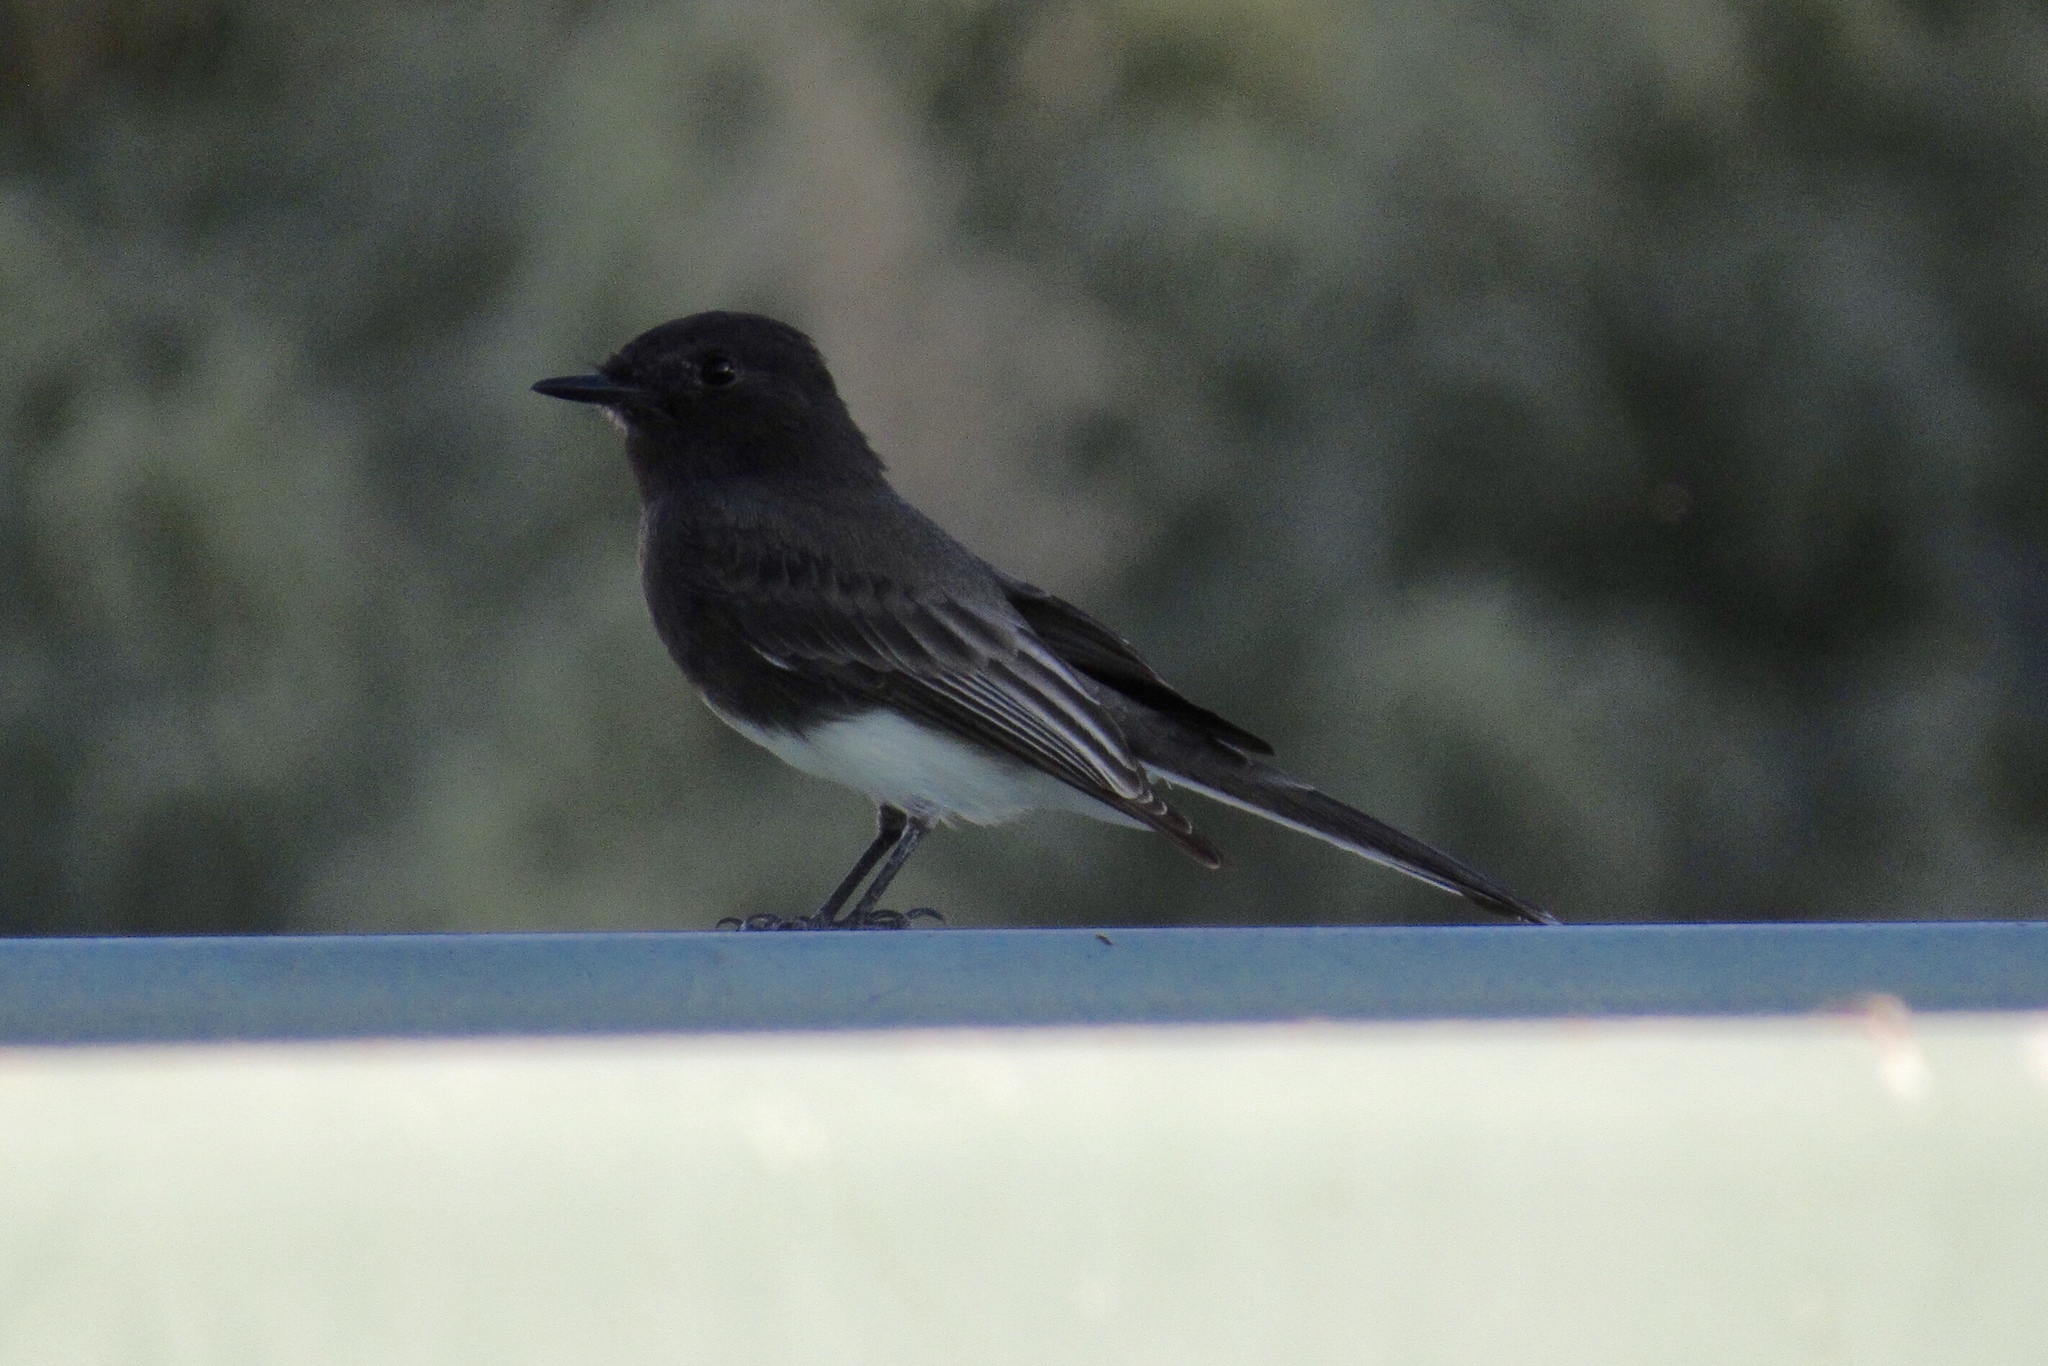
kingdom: Animalia
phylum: Chordata
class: Aves
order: Passeriformes
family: Tyrannidae
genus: Sayornis
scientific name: Sayornis nigricans
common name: Black phoebe
